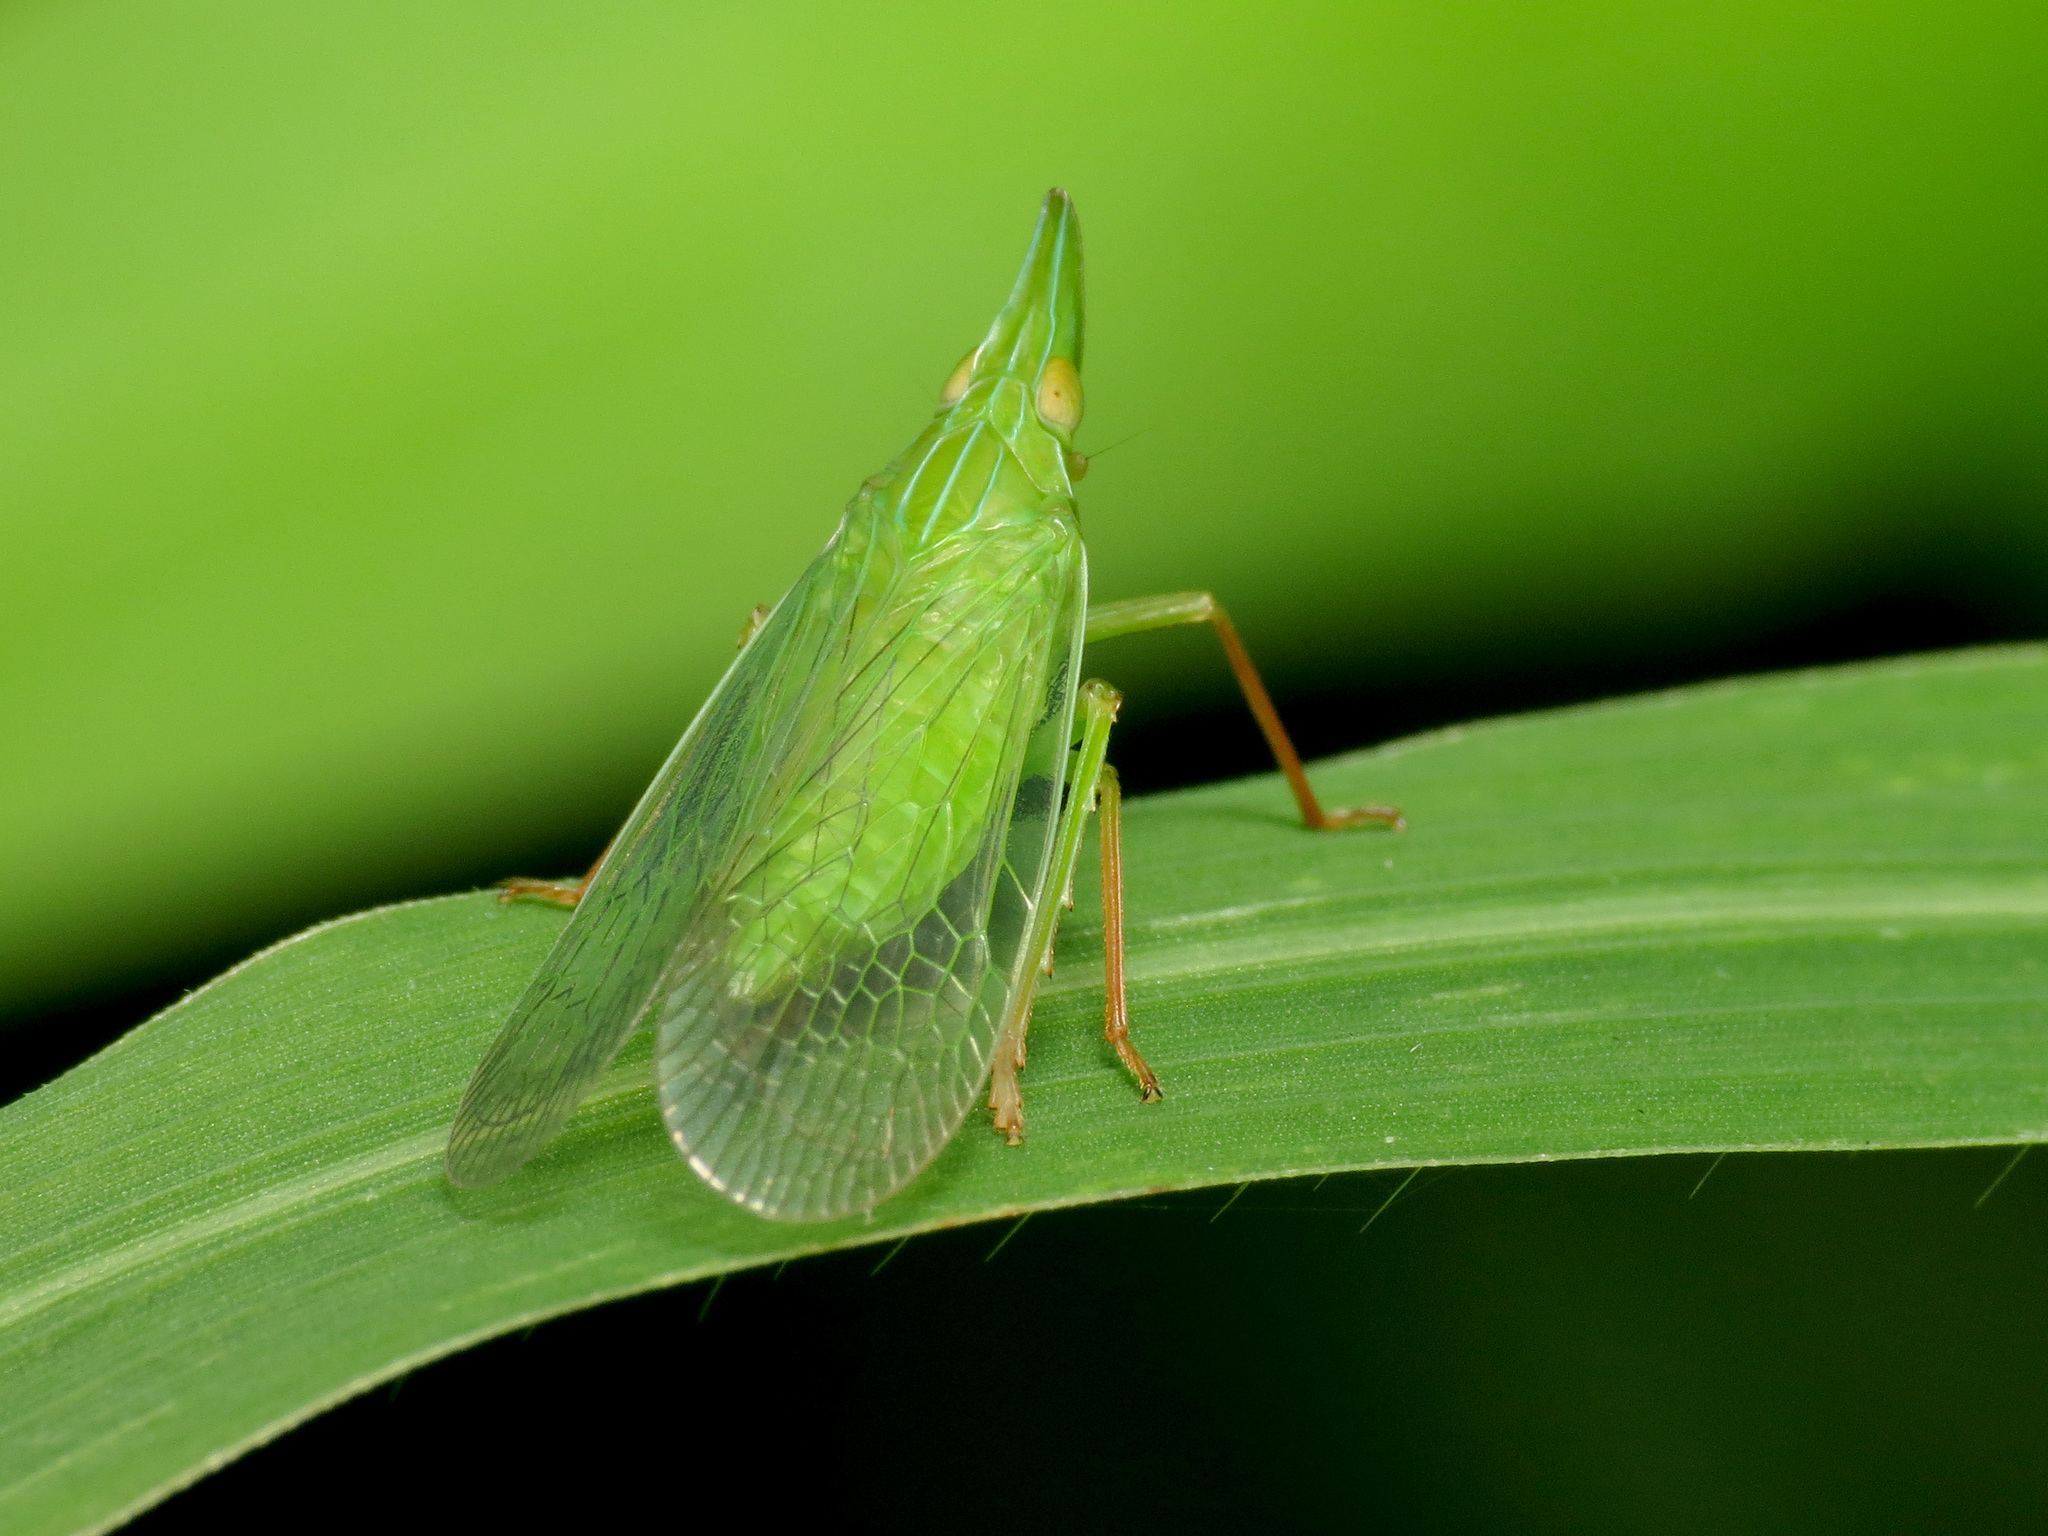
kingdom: Animalia
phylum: Arthropoda
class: Insecta
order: Hemiptera
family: Dictyopharidae
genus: Rhynchomitra
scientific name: Rhynchomitra microrhina
